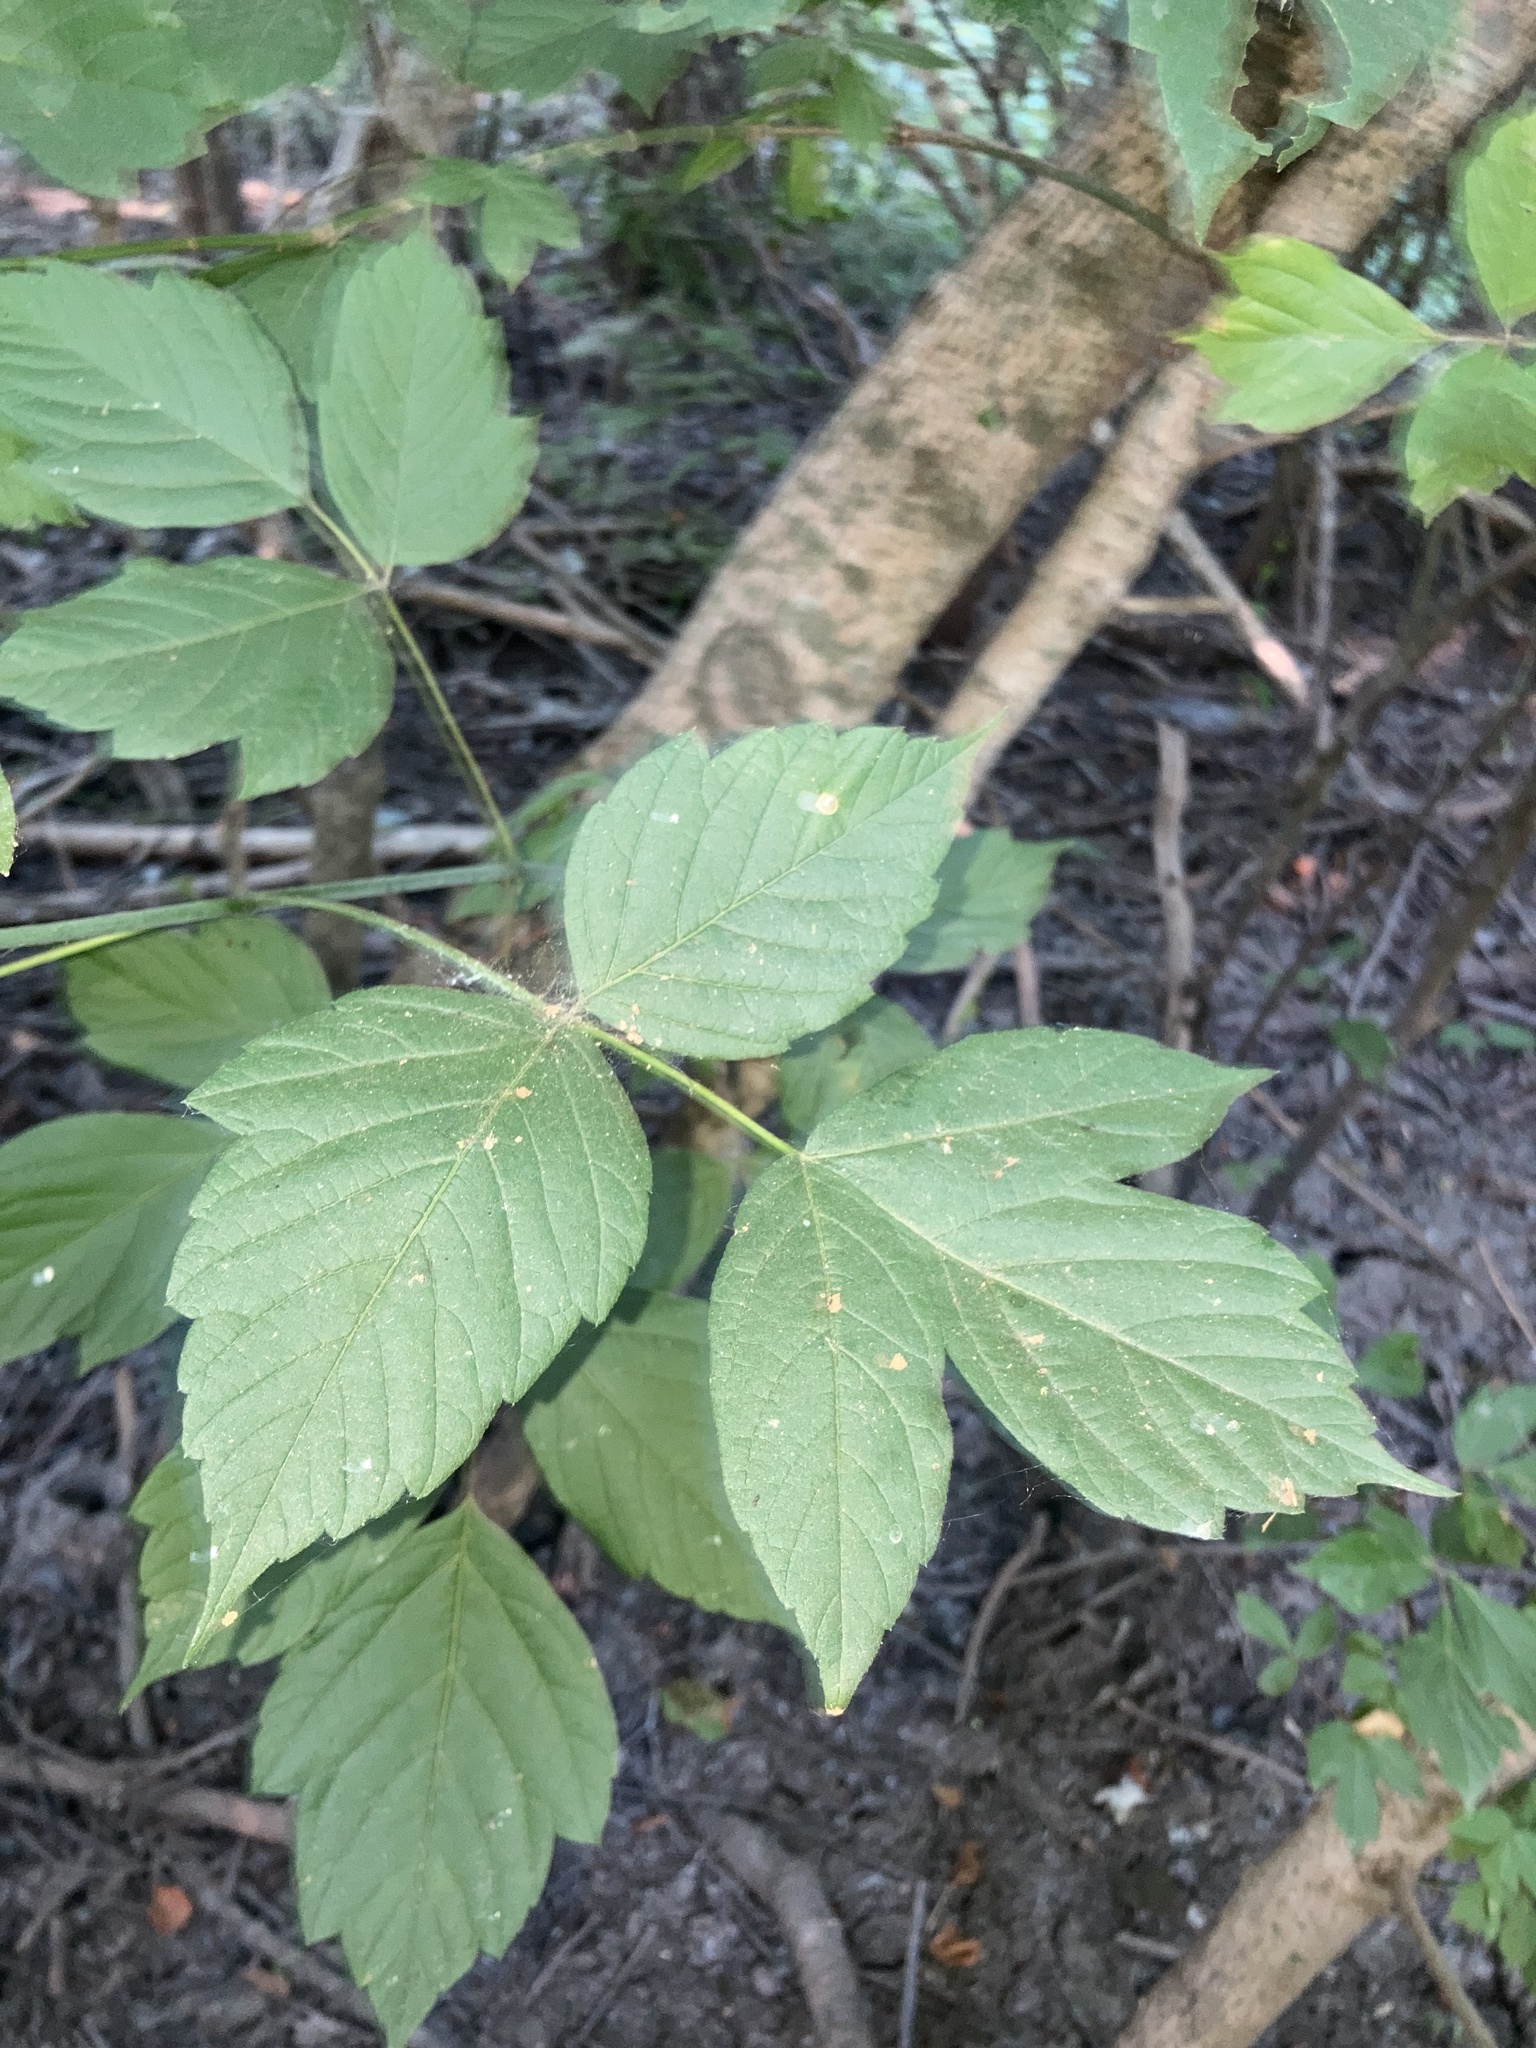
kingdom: Plantae
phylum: Tracheophyta
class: Magnoliopsida
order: Sapindales
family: Sapindaceae
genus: Acer
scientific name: Acer negundo
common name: Ashleaf maple
